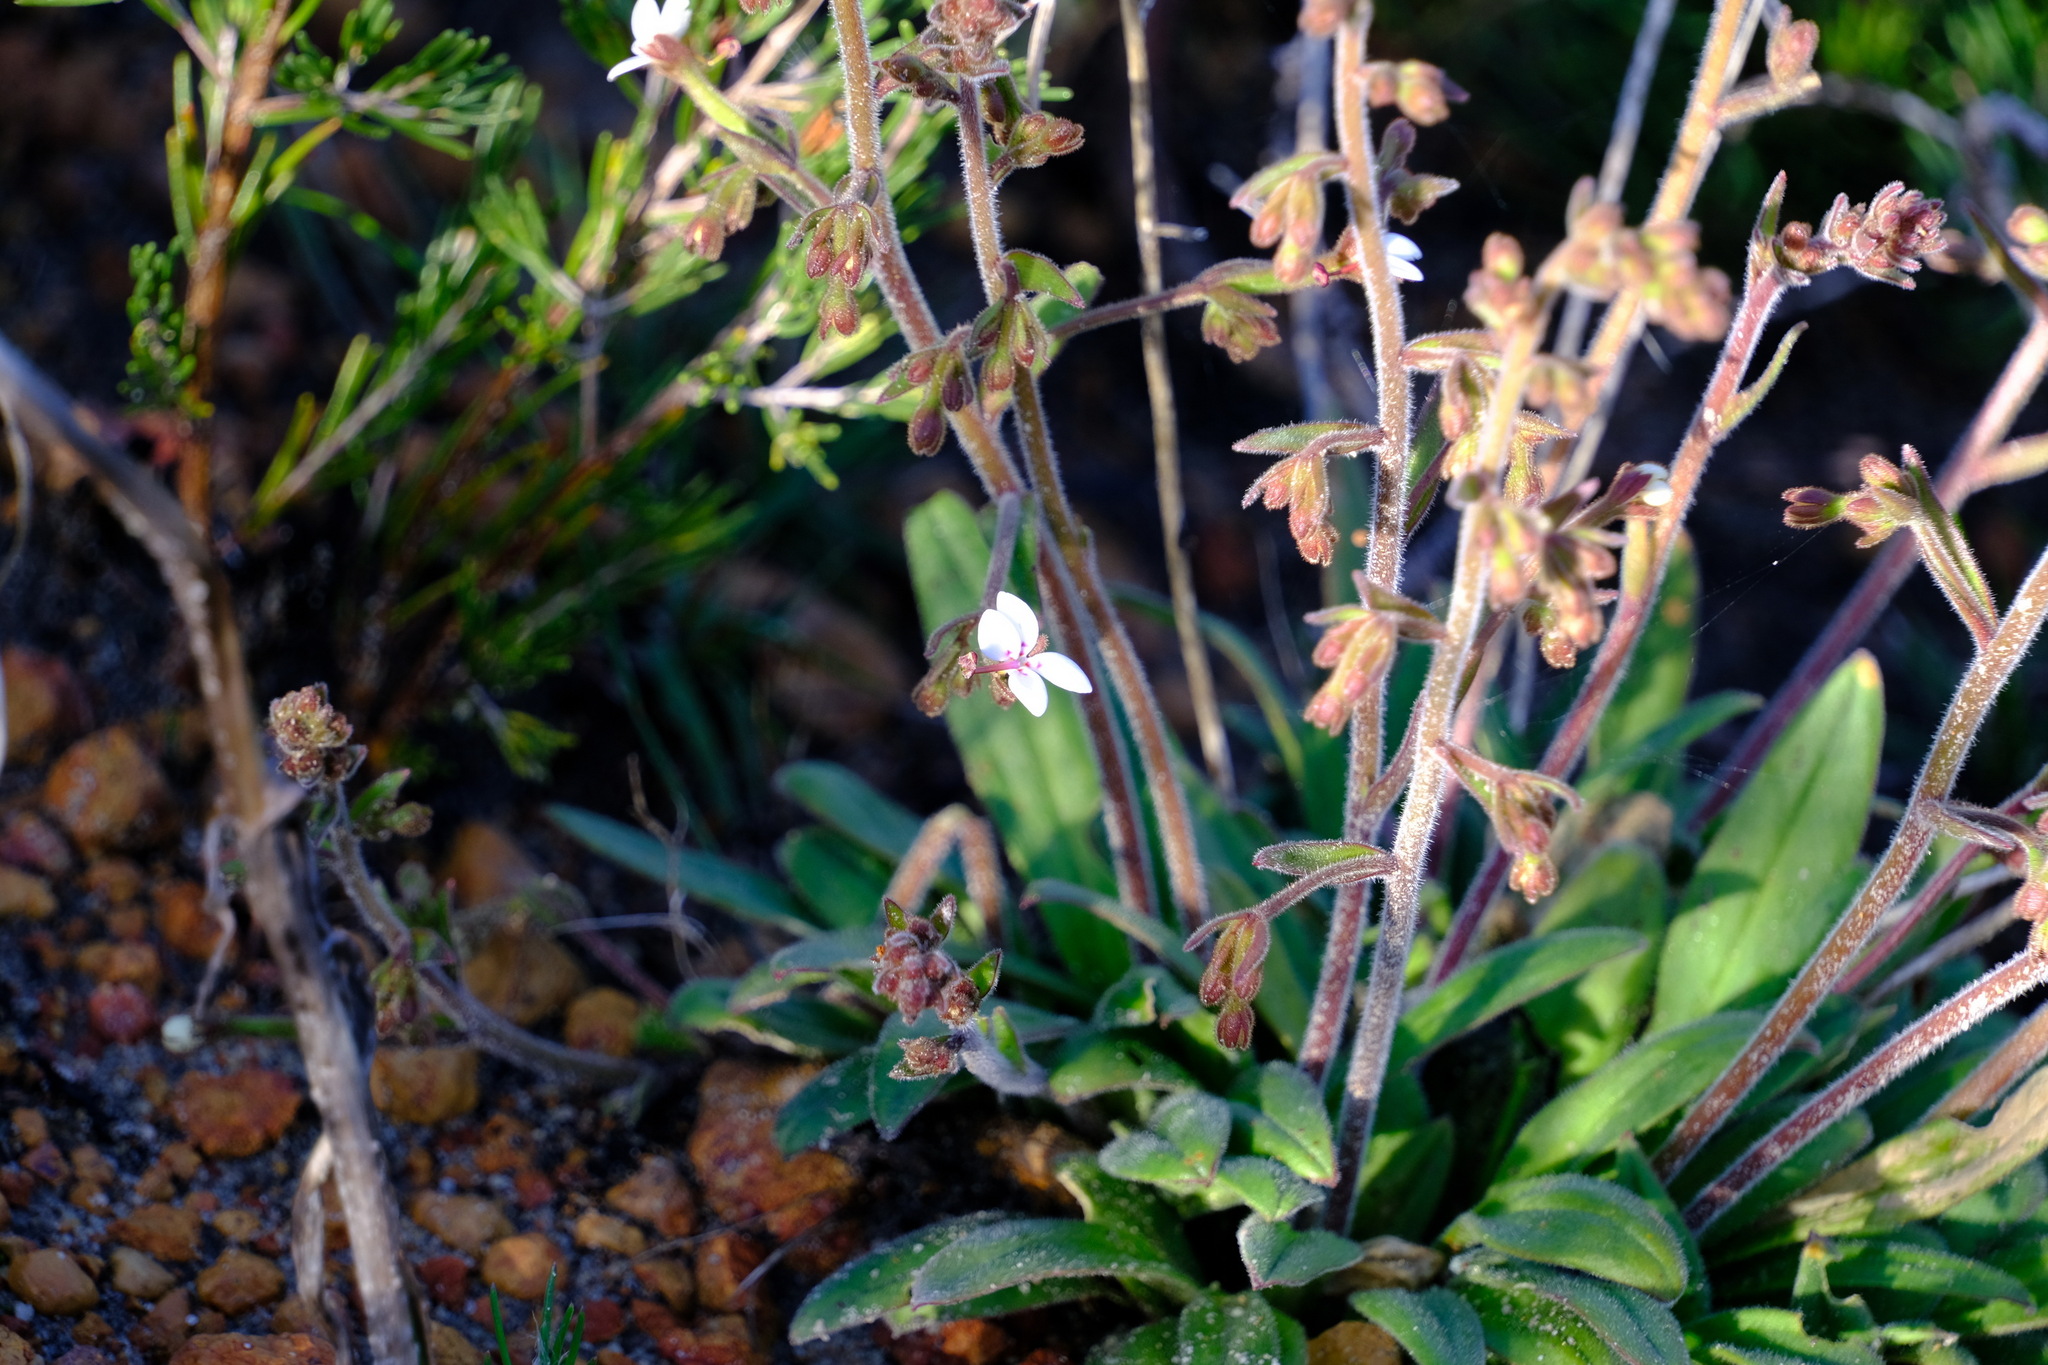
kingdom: Plantae
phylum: Tracheophyta
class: Magnoliopsida
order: Asterales
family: Stylidiaceae
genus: Stylidium
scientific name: Stylidium pycnostachyum
